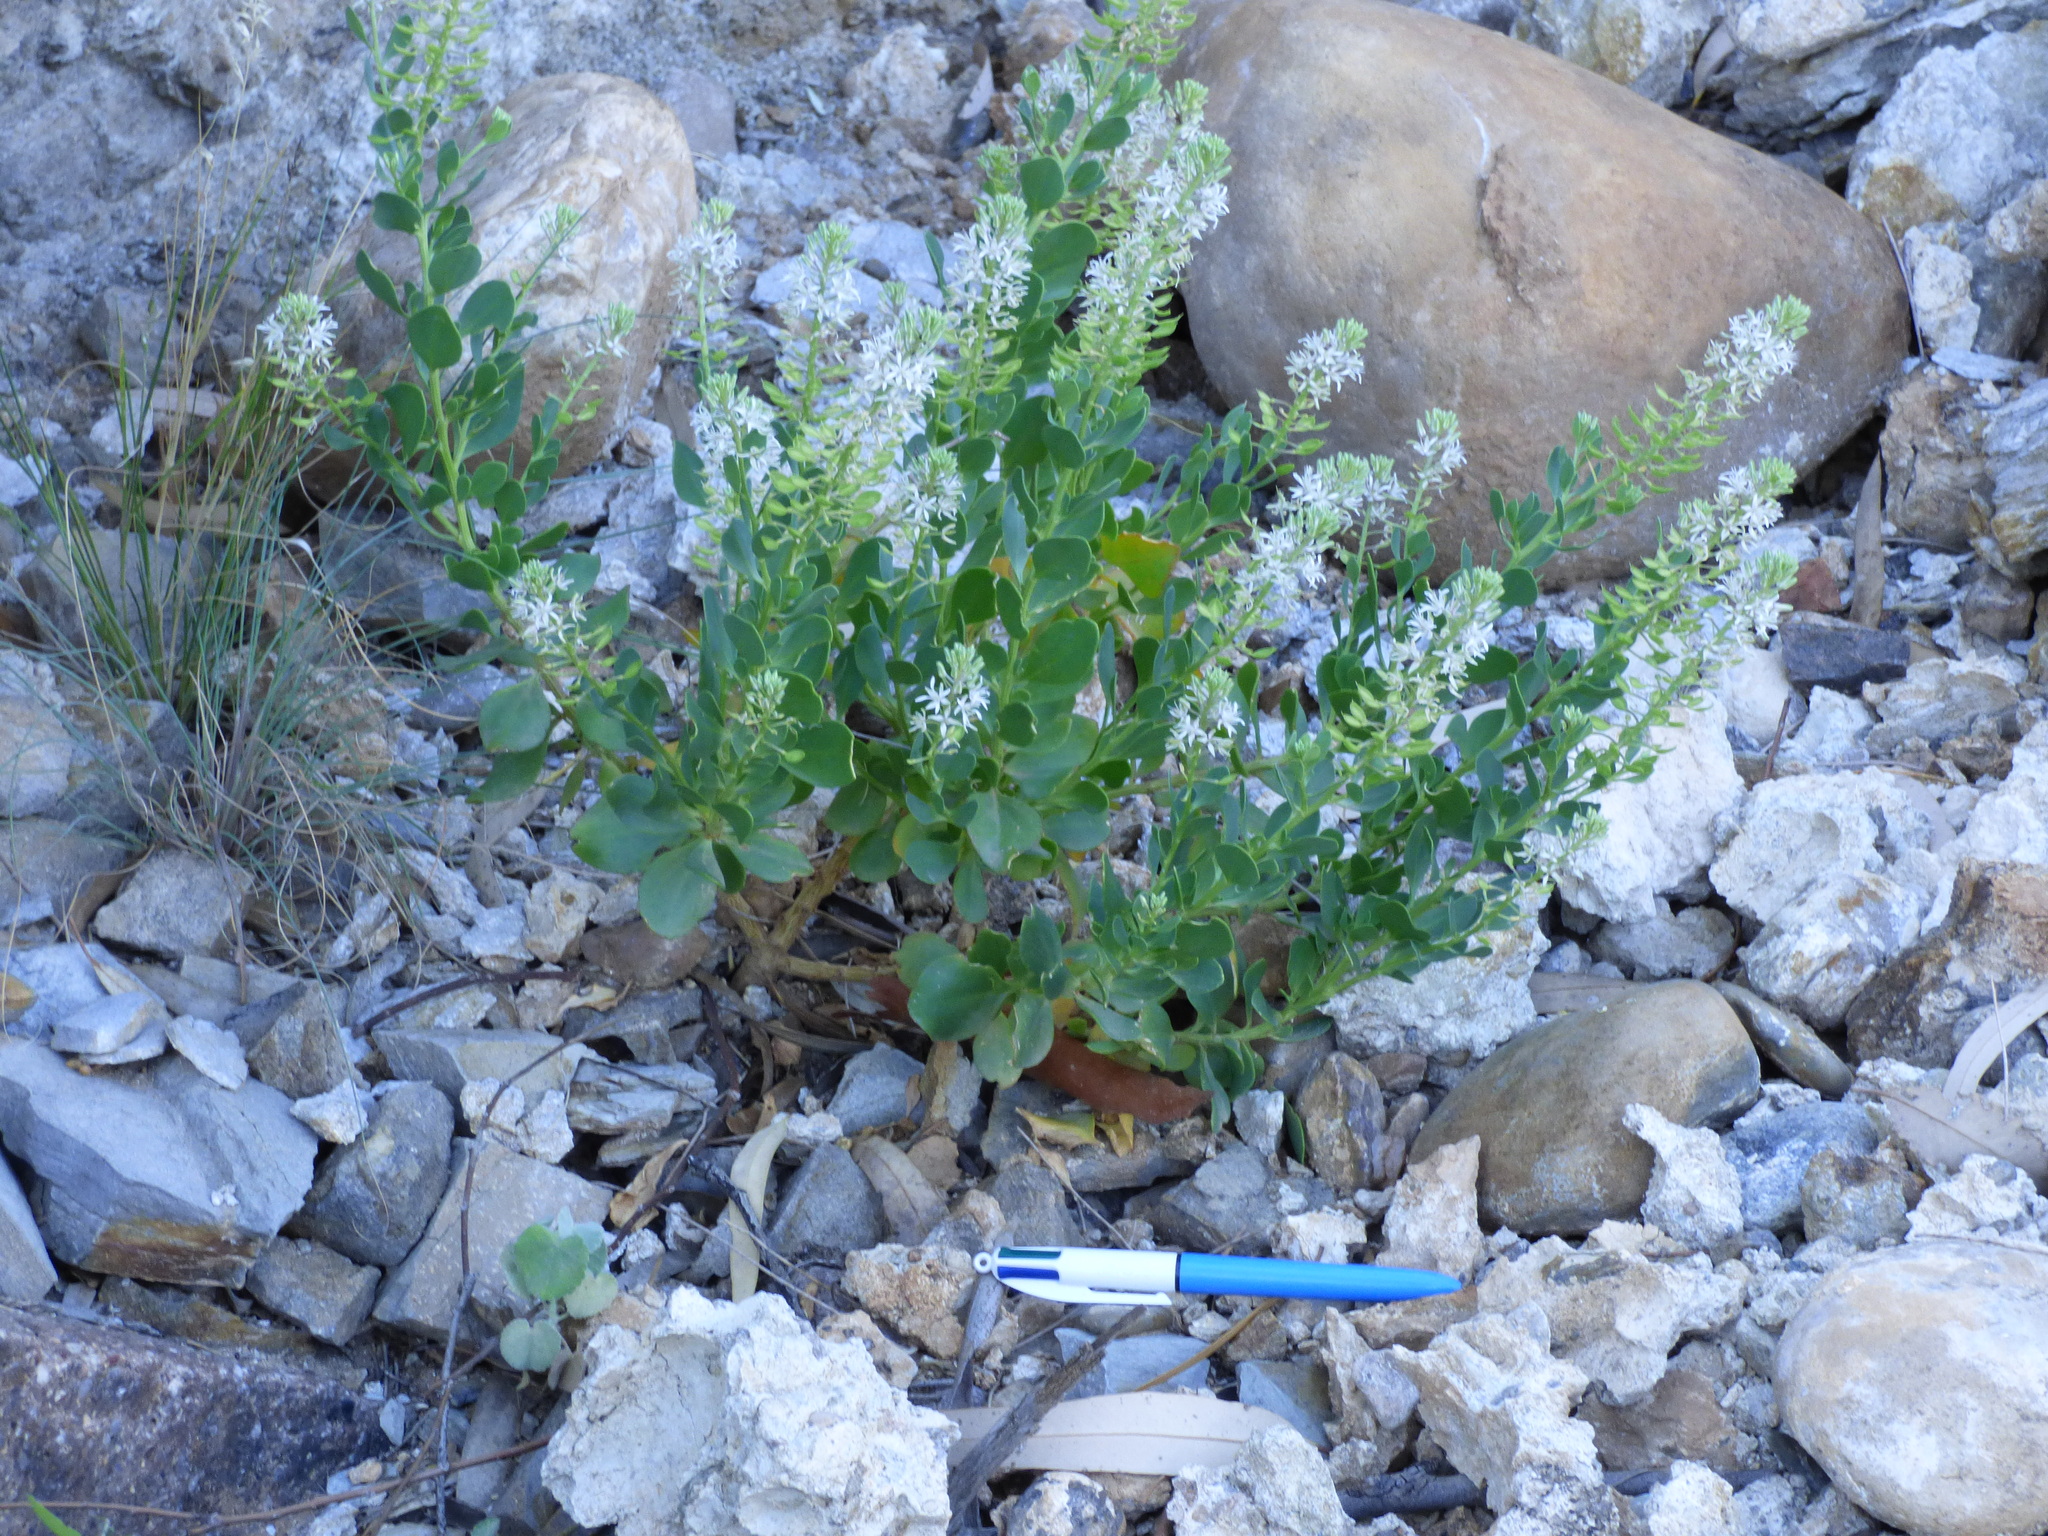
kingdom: Plantae
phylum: Tracheophyta
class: Magnoliopsida
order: Brassicales
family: Brassicaceae
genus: Lepidium
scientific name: Lepidium strongylophyllum
